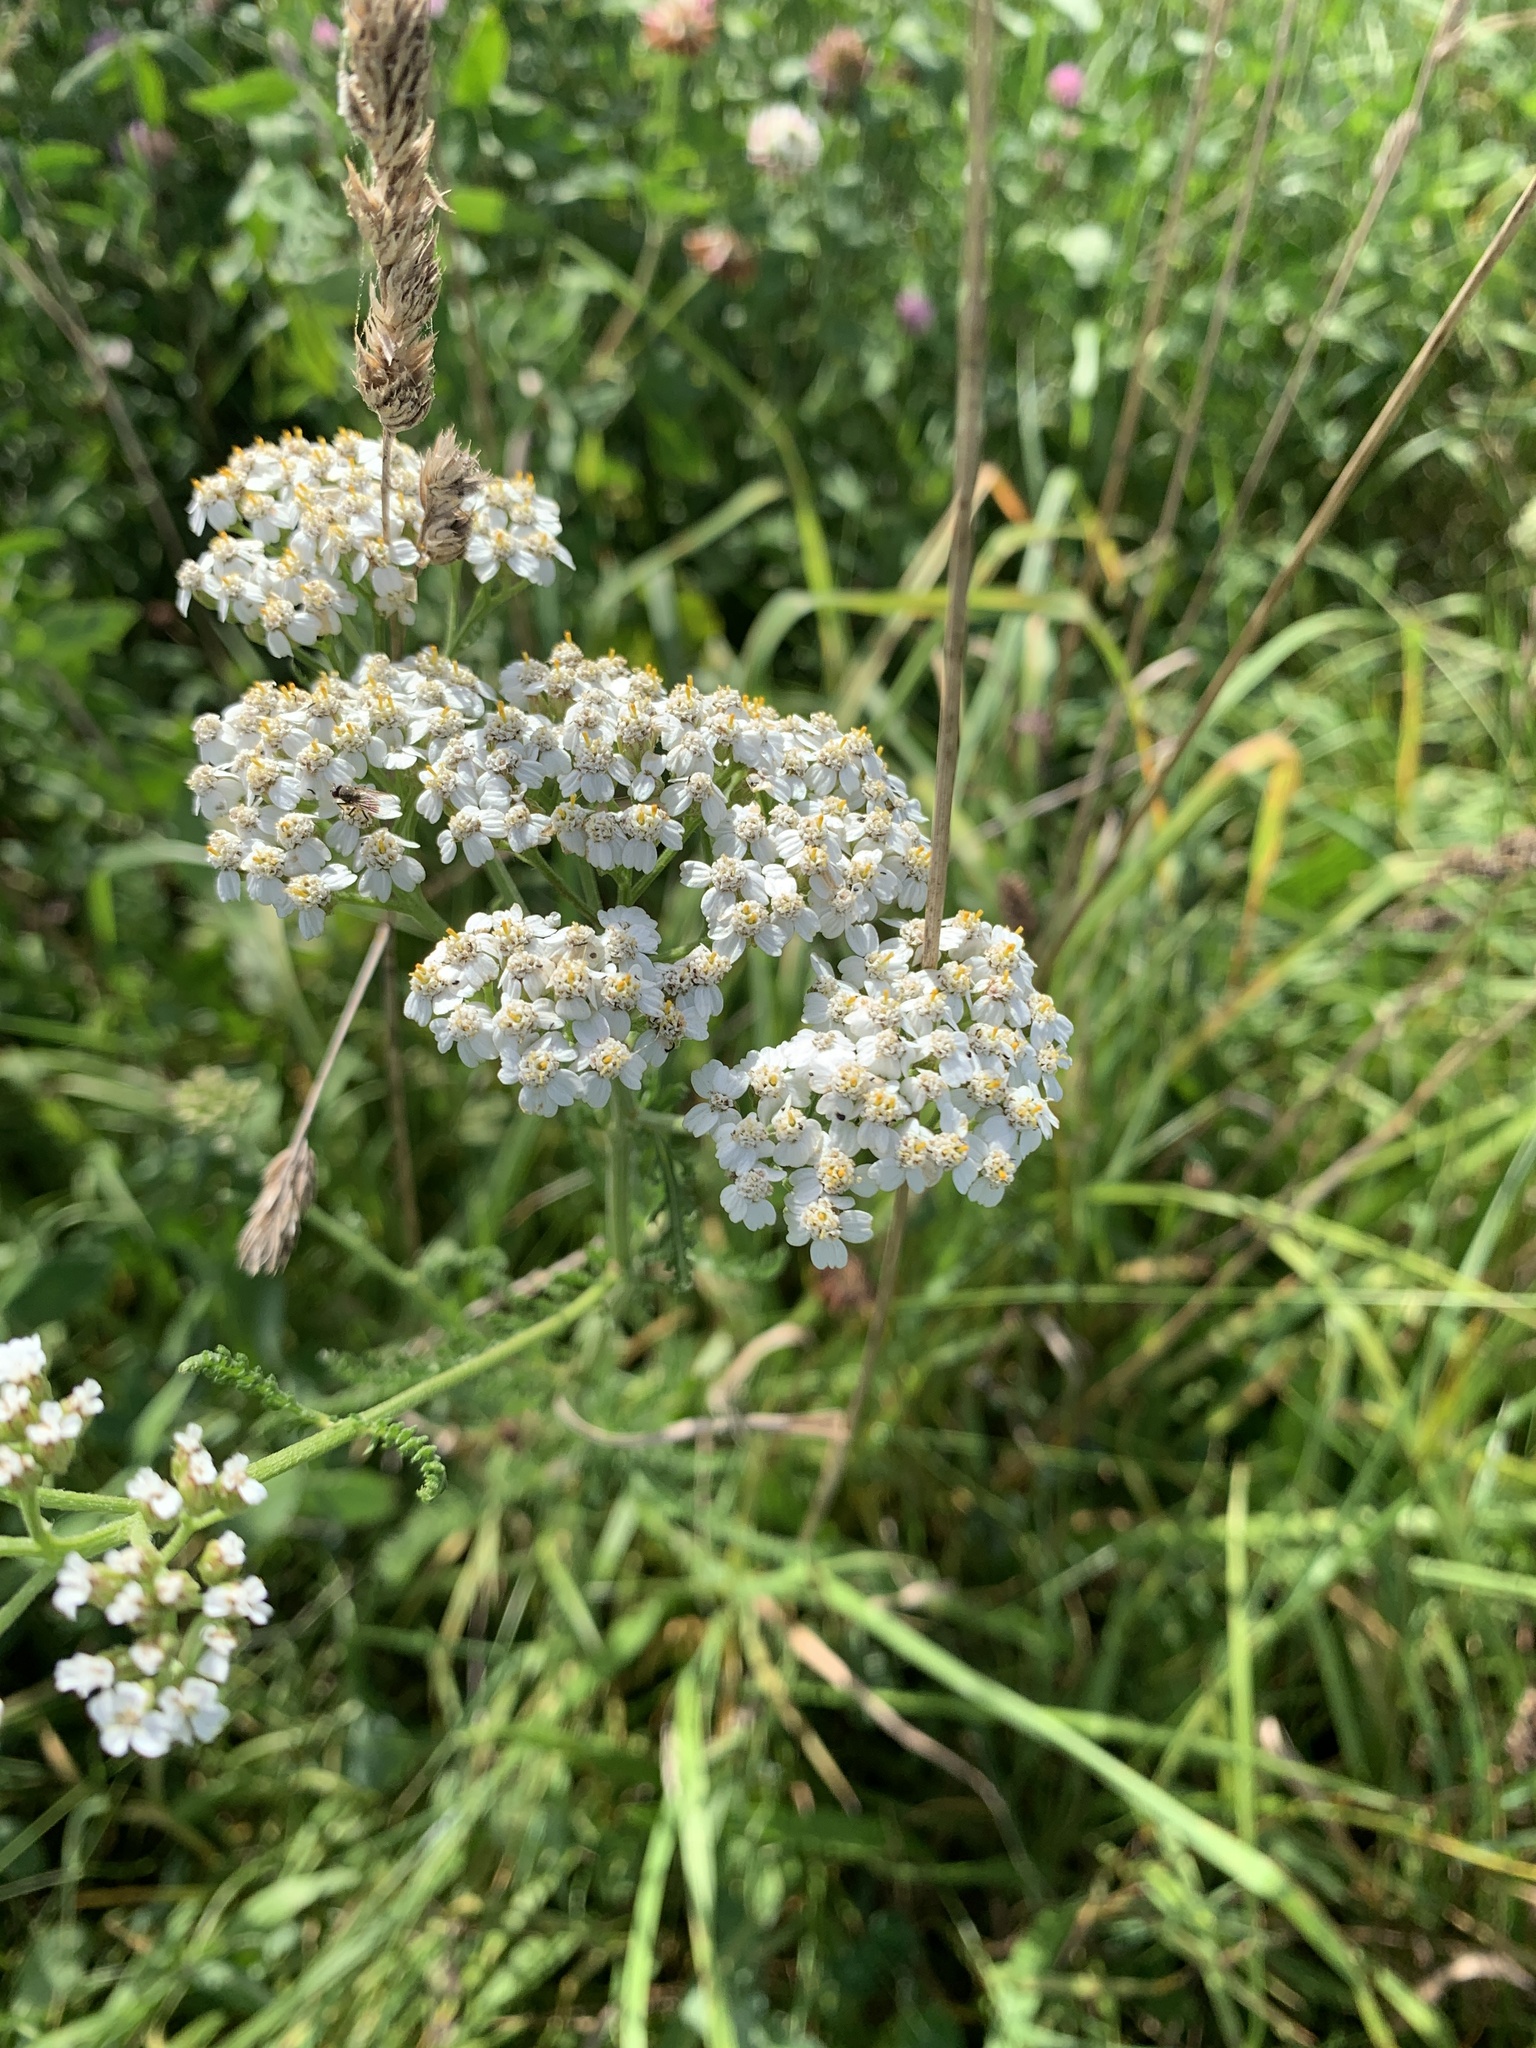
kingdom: Plantae
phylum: Tracheophyta
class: Magnoliopsida
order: Asterales
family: Asteraceae
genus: Achillea
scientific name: Achillea millefolium
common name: Yarrow
